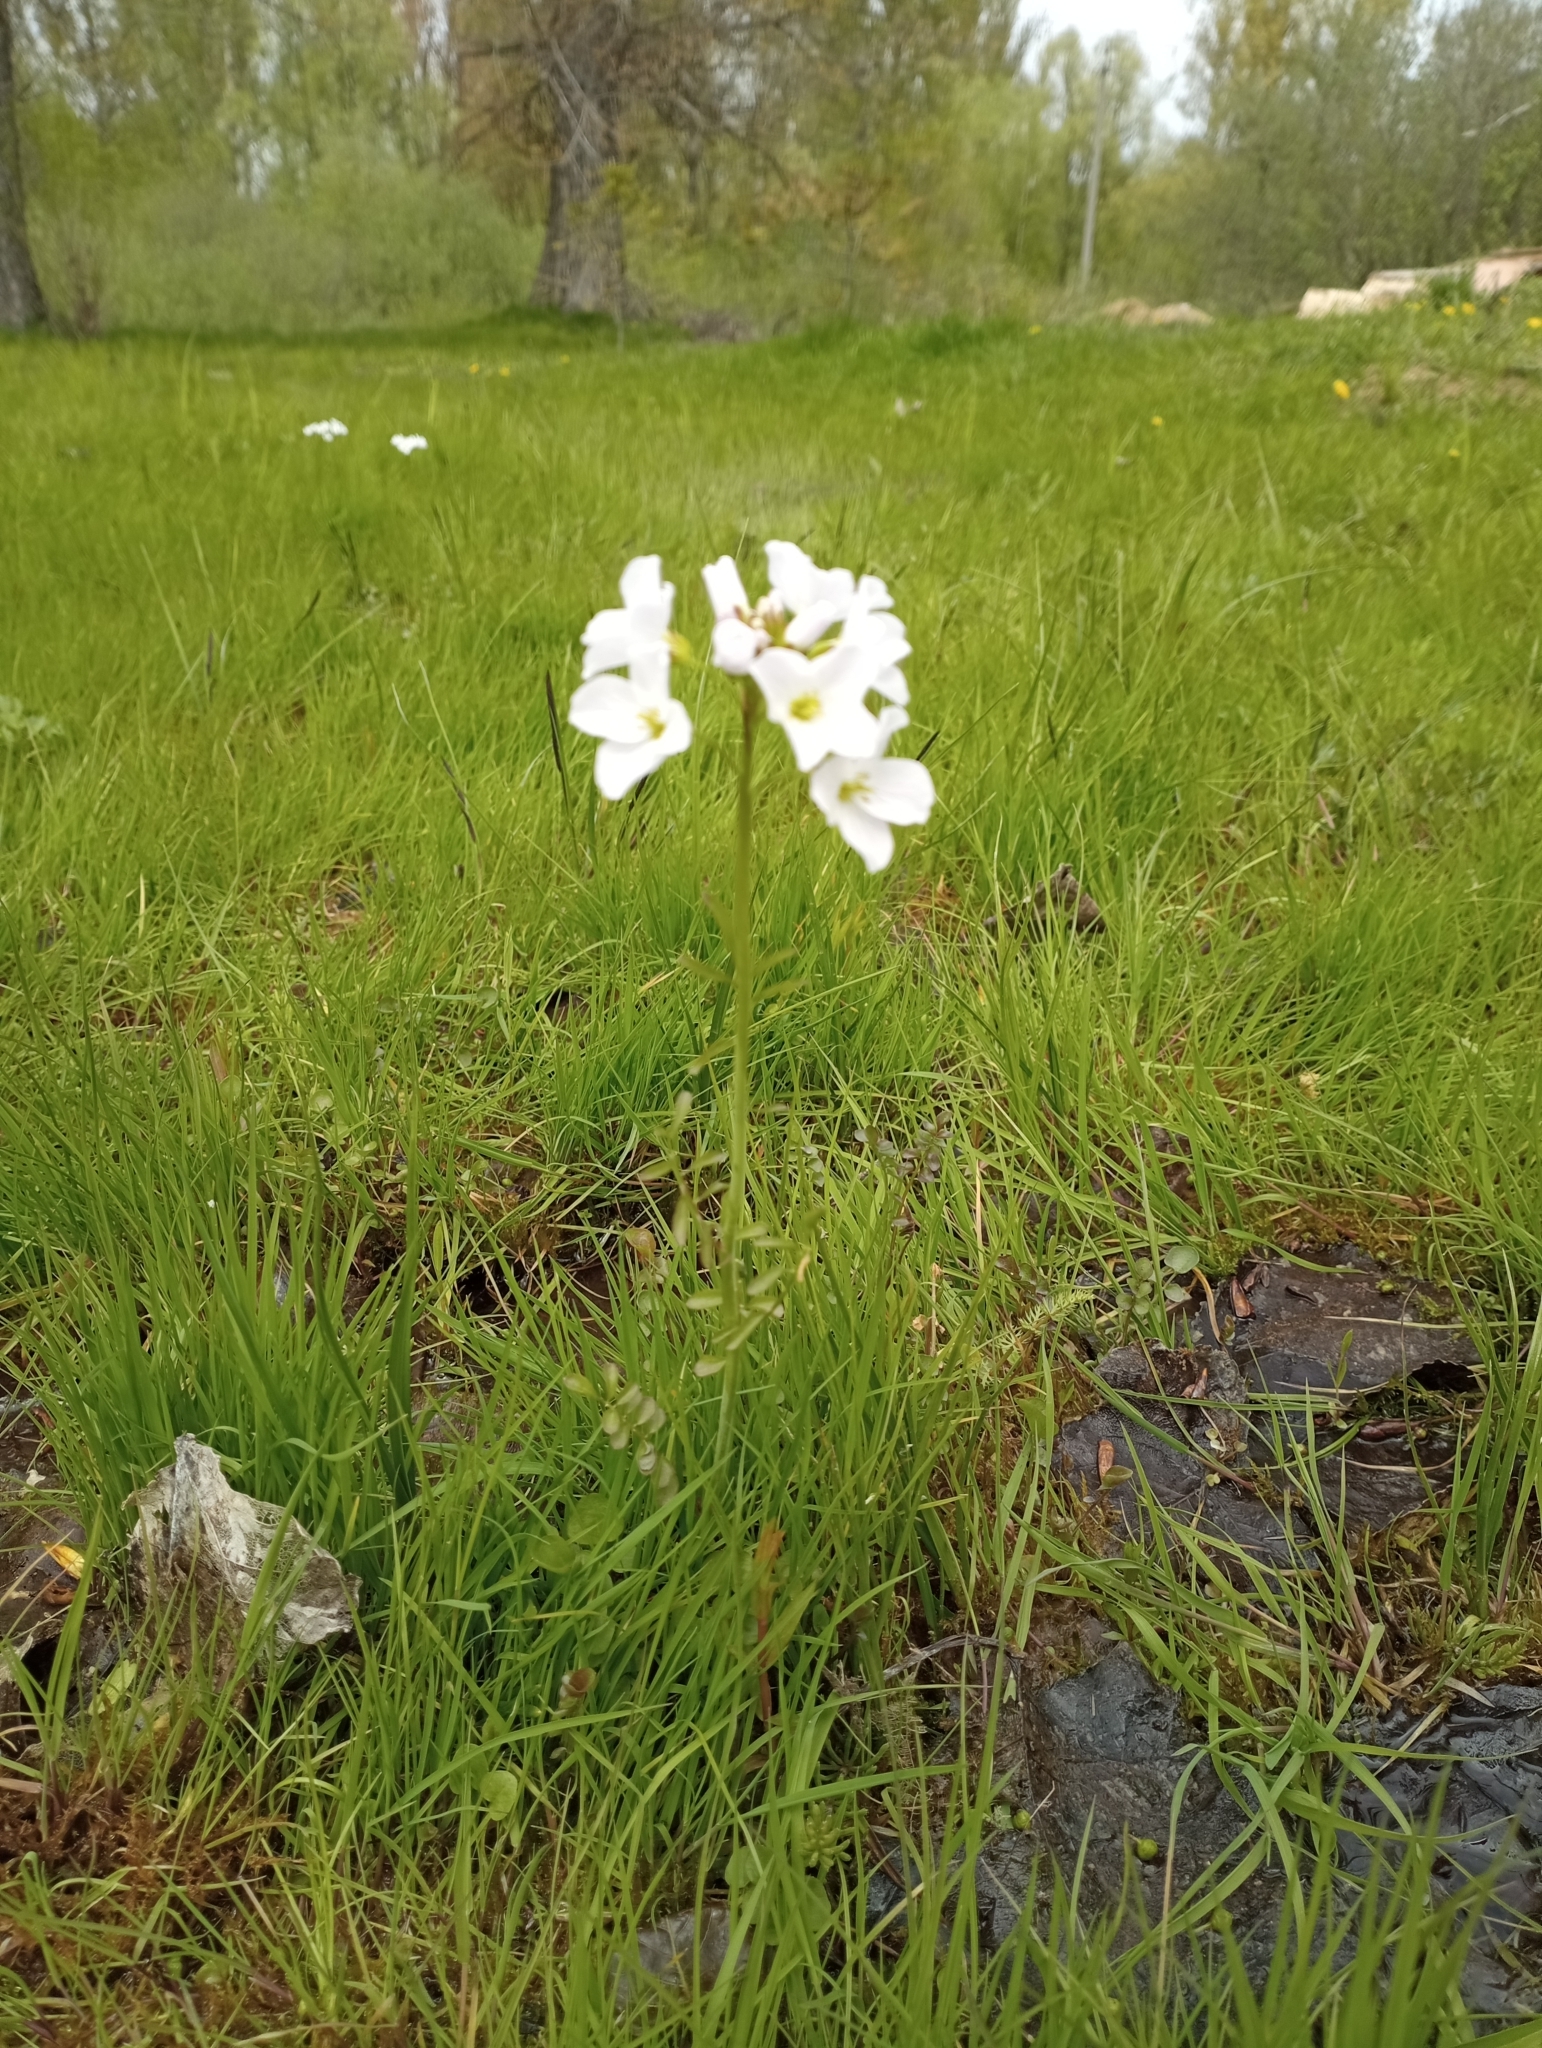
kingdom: Plantae
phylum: Tracheophyta
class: Magnoliopsida
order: Brassicales
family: Brassicaceae
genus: Cardamine
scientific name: Cardamine dentata
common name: Toothed bittercress
